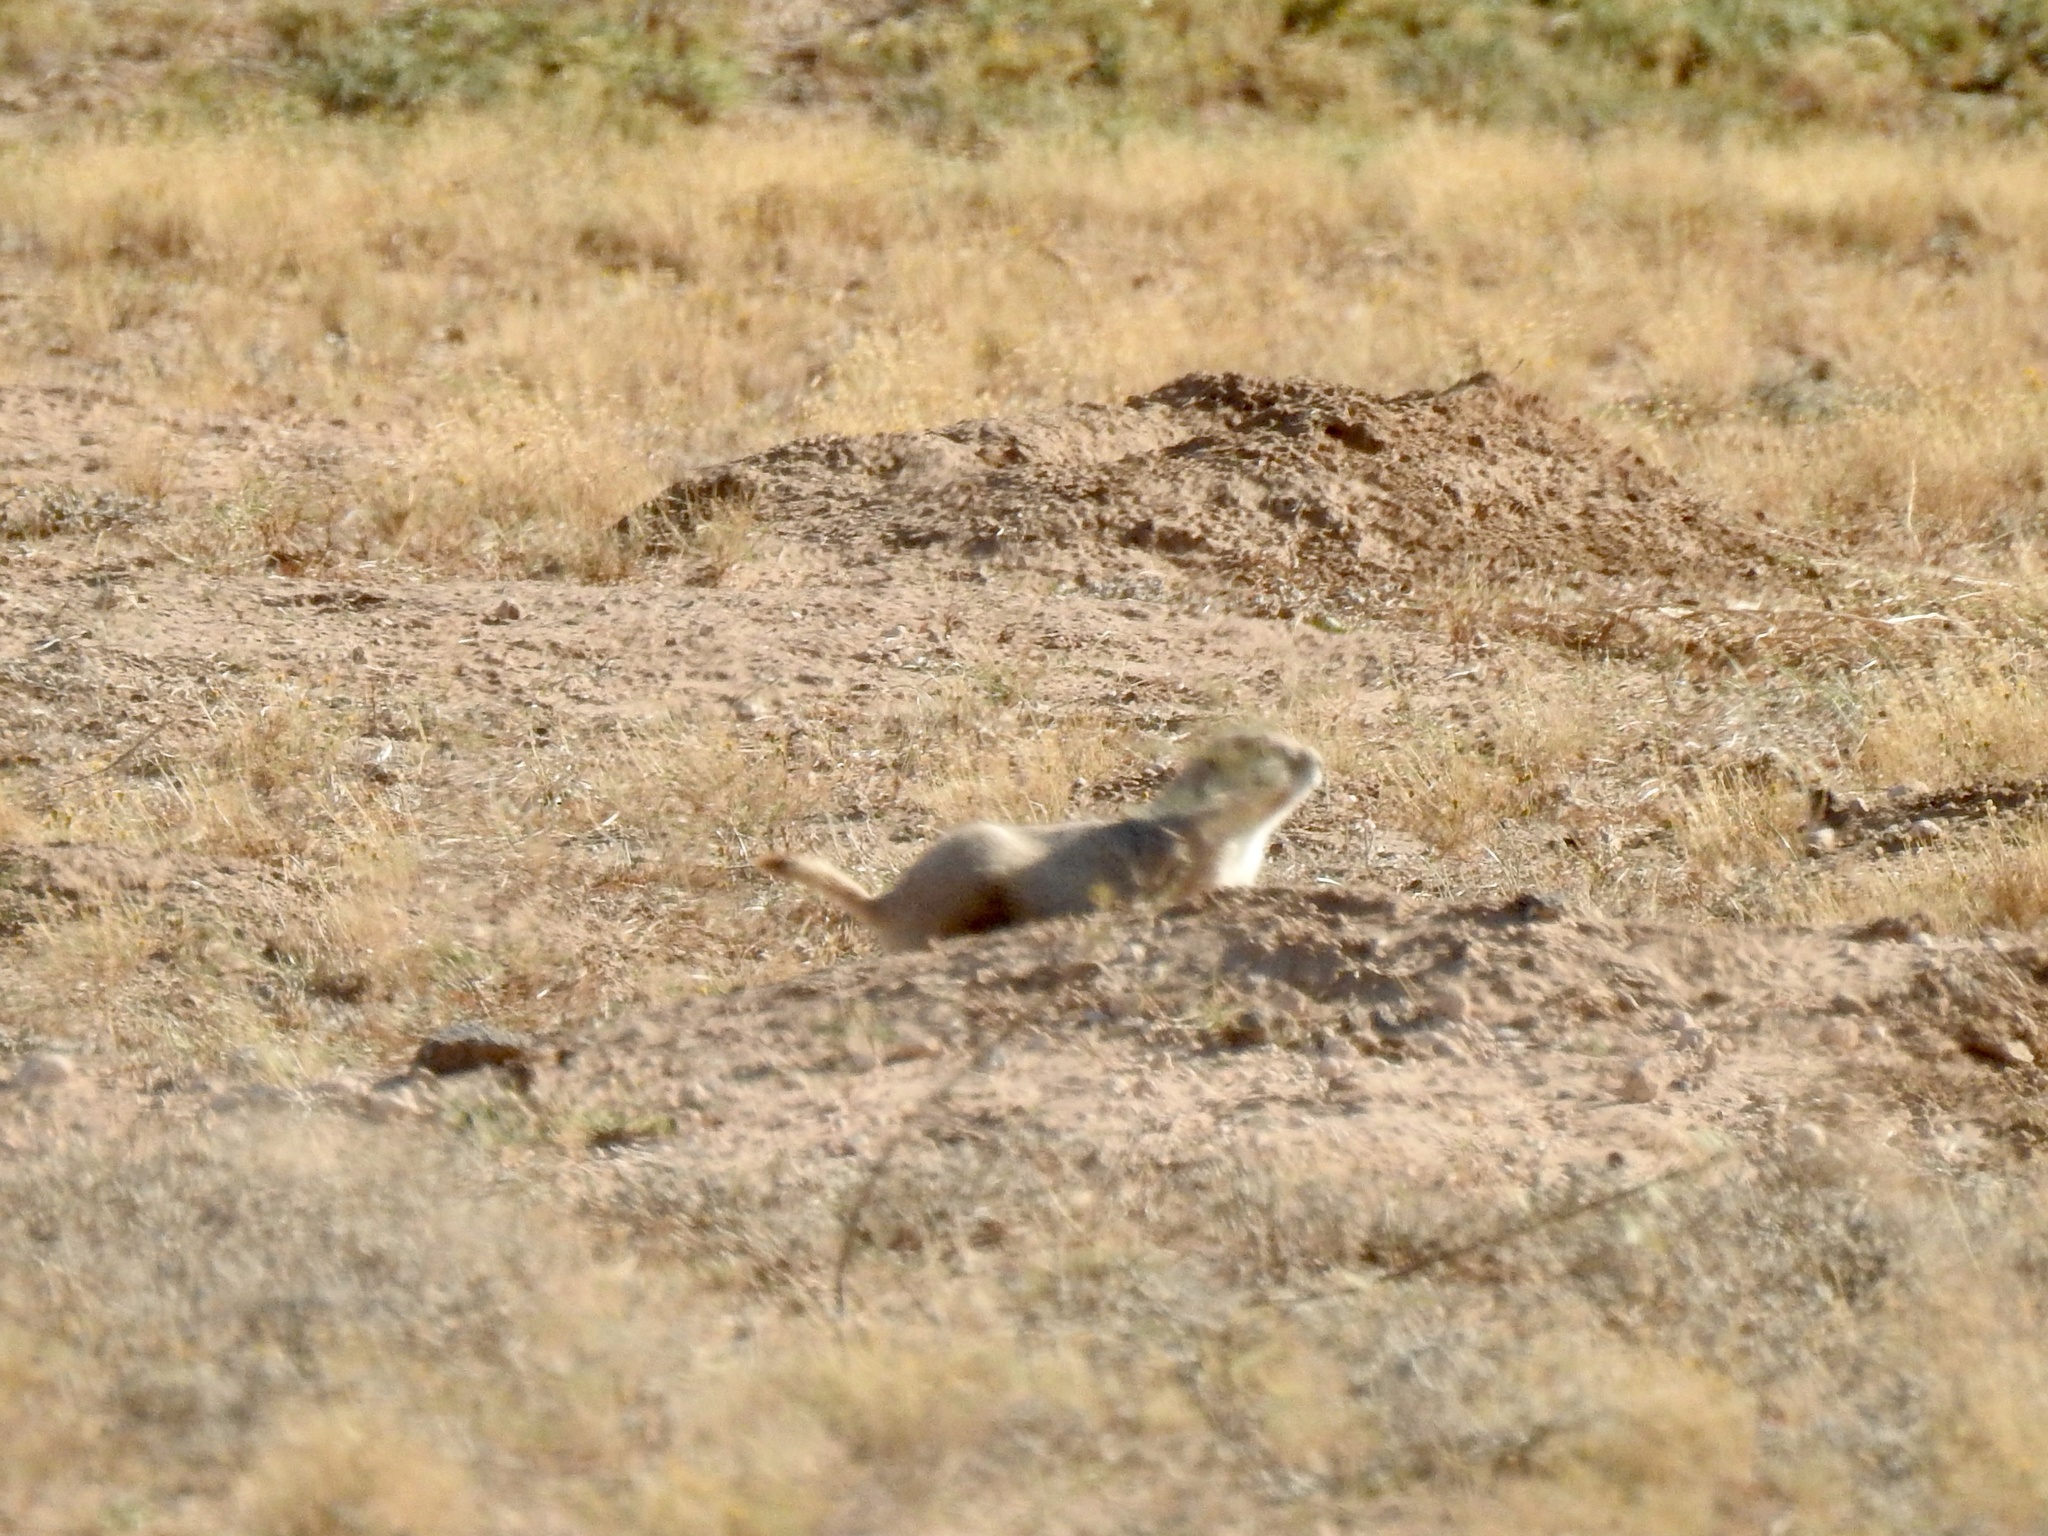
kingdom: Animalia
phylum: Chordata
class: Mammalia
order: Rodentia
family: Sciuridae
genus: Cynomys
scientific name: Cynomys ludovicianus
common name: Black-tailed prairie dog
